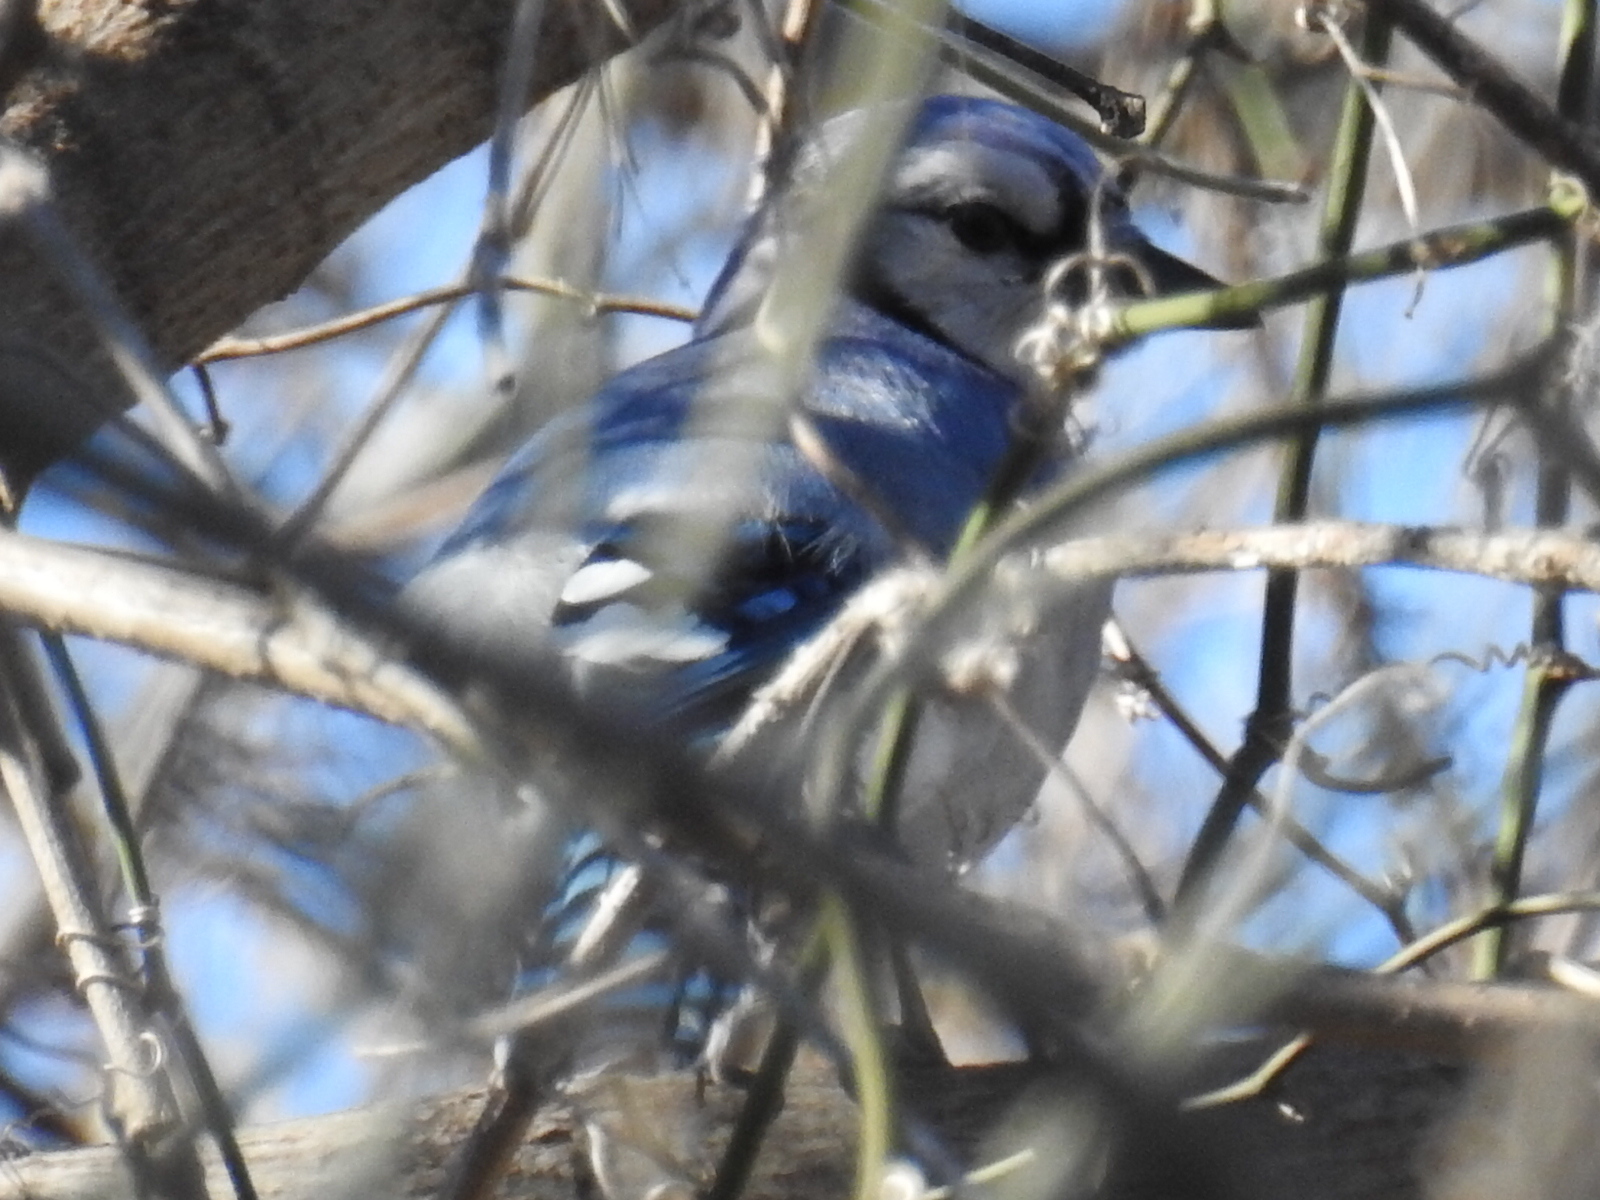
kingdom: Animalia
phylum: Chordata
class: Aves
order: Passeriformes
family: Corvidae
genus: Cyanocitta
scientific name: Cyanocitta cristata
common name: Blue jay
